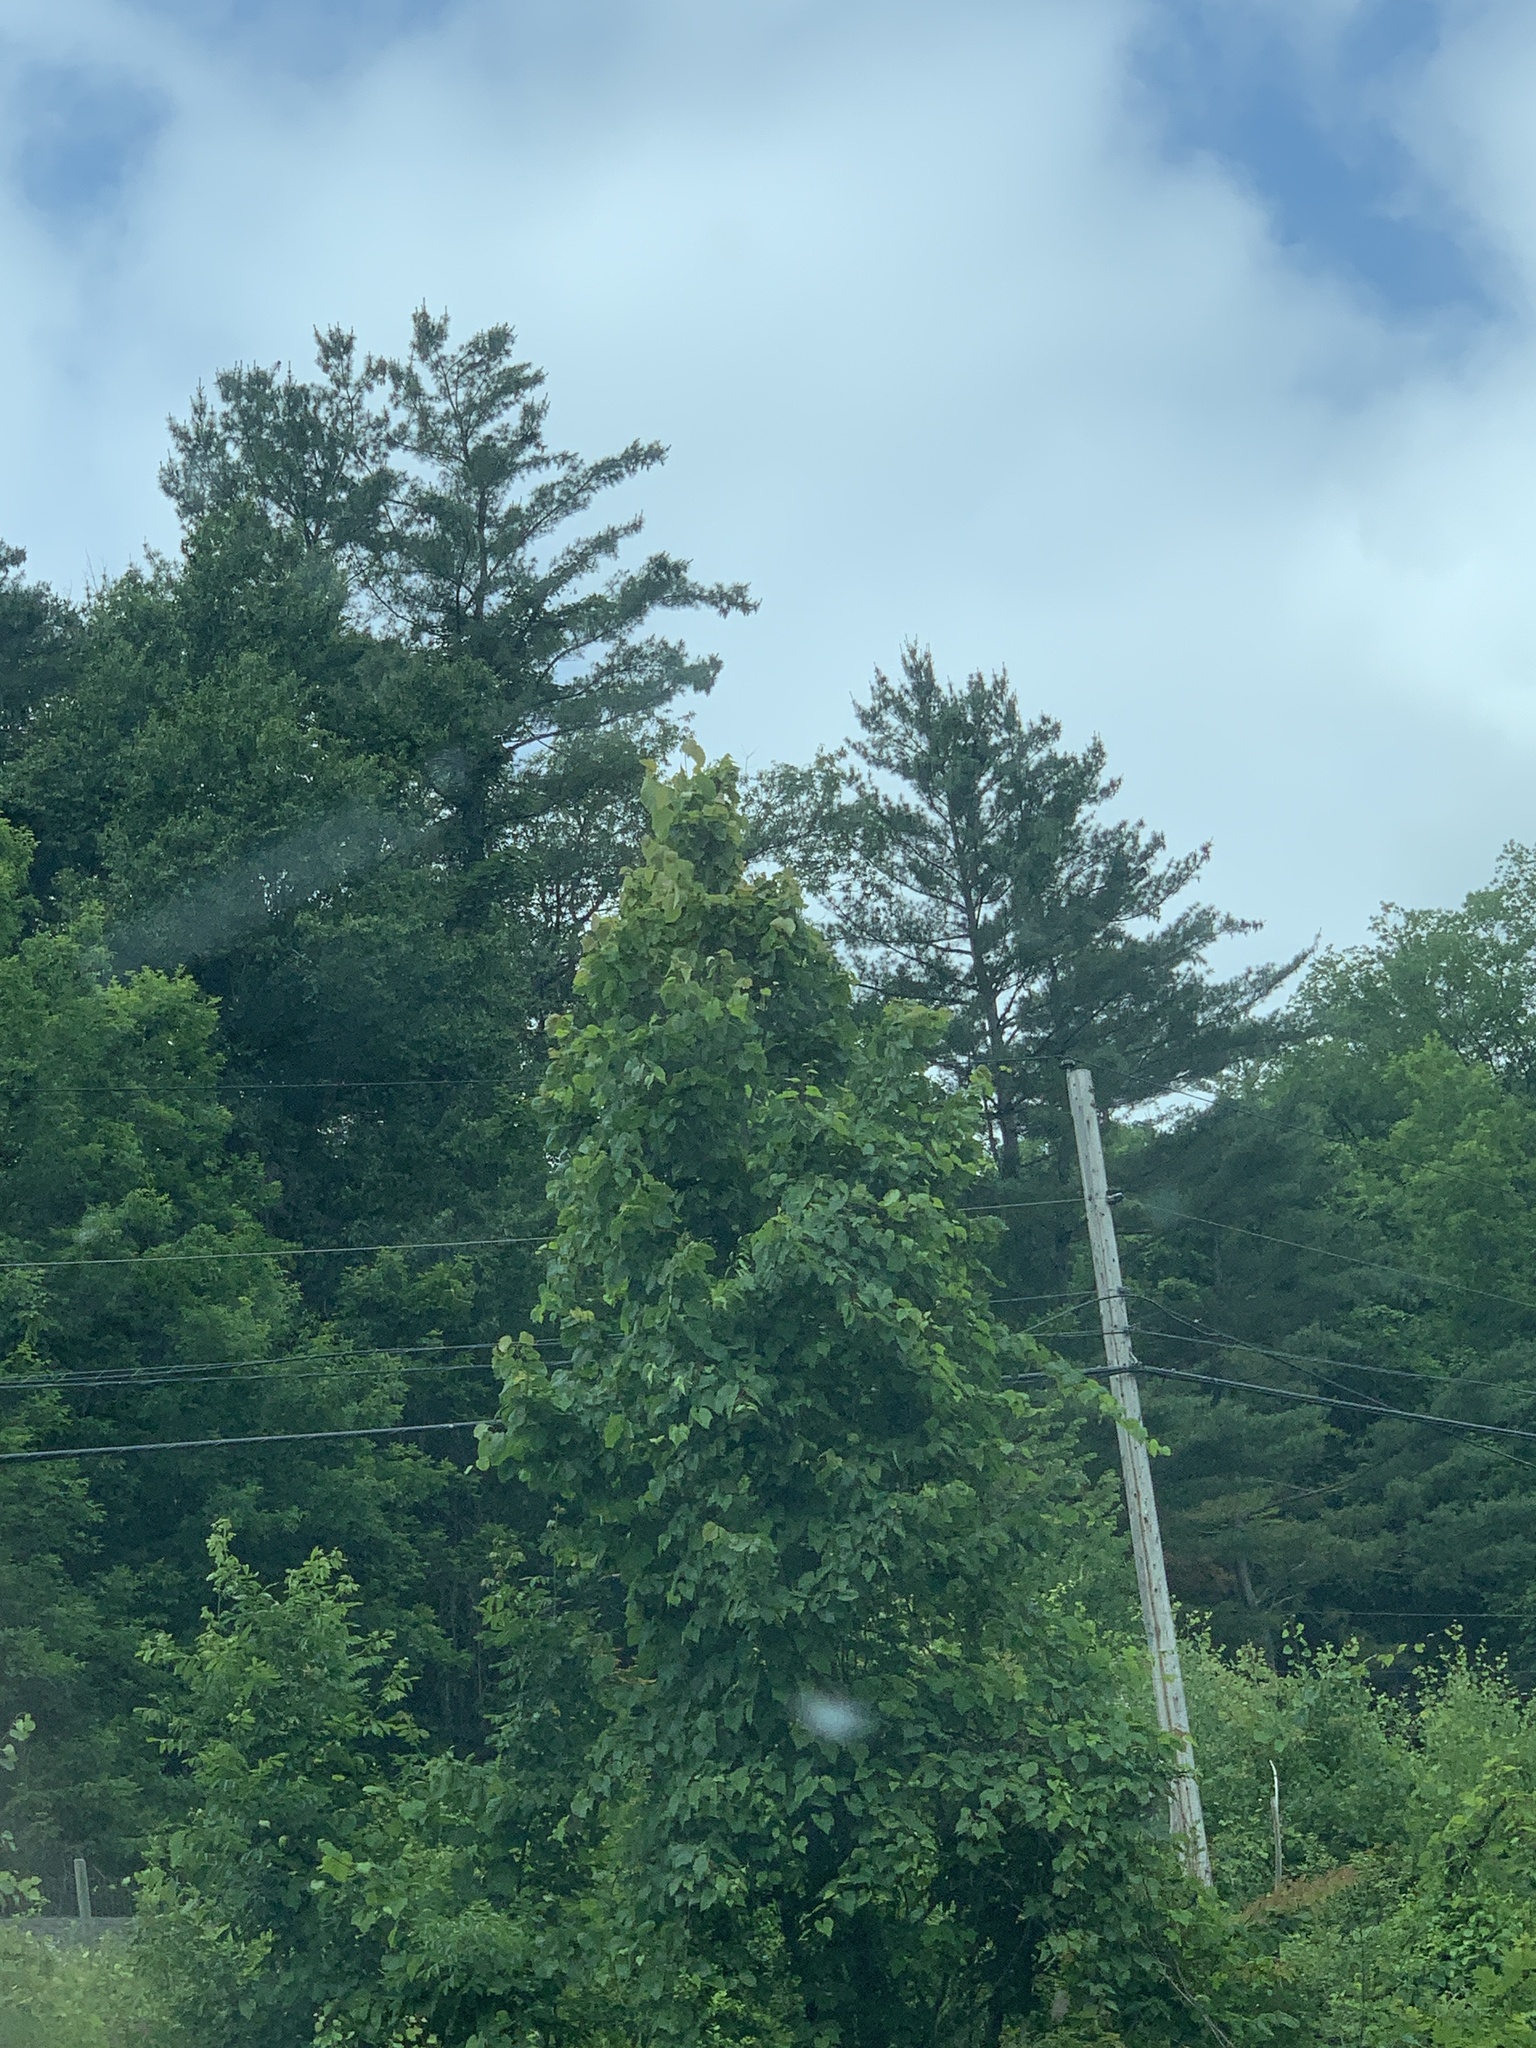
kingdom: Plantae
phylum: Tracheophyta
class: Pinopsida
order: Pinales
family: Pinaceae
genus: Pinus
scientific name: Pinus strobus
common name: Weymouth pine
